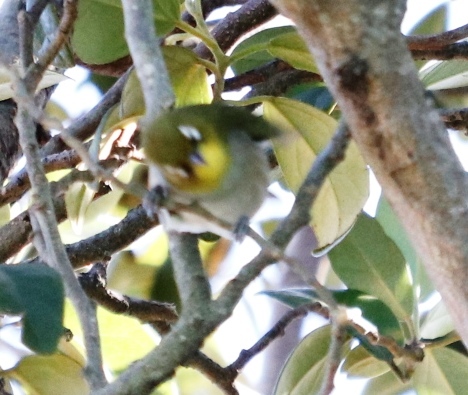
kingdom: Animalia
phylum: Chordata
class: Aves
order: Passeriformes
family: Zosteropidae
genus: Zosterops
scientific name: Zosterops virens
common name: Cape white-eye
